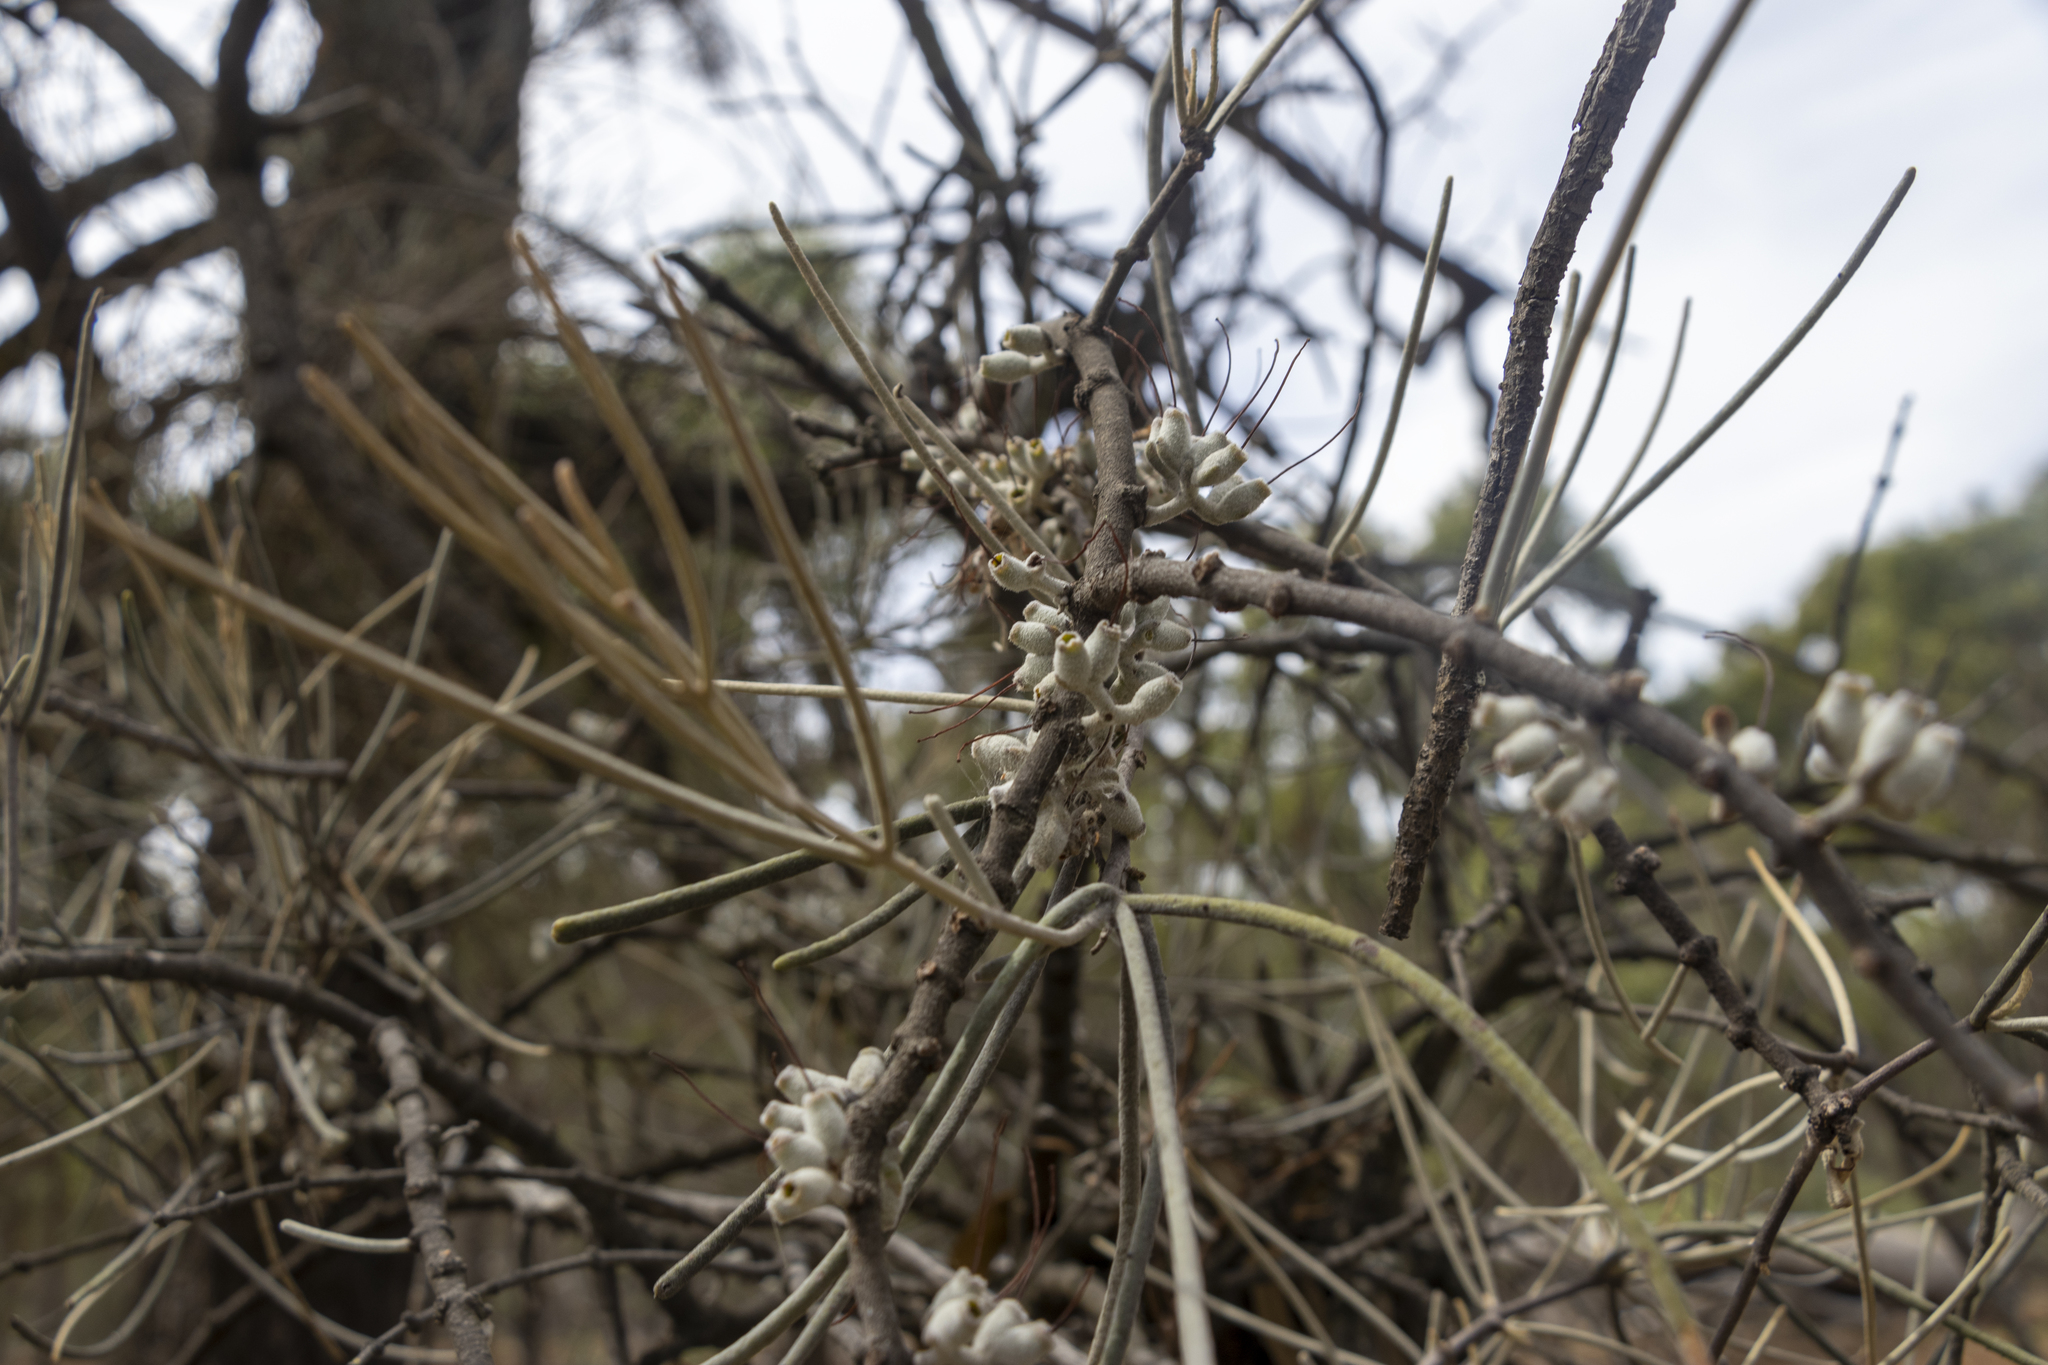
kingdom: Plantae
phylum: Tracheophyta
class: Magnoliopsida
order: Santalales
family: Loranthaceae
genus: Amyema
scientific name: Amyema linophylla
